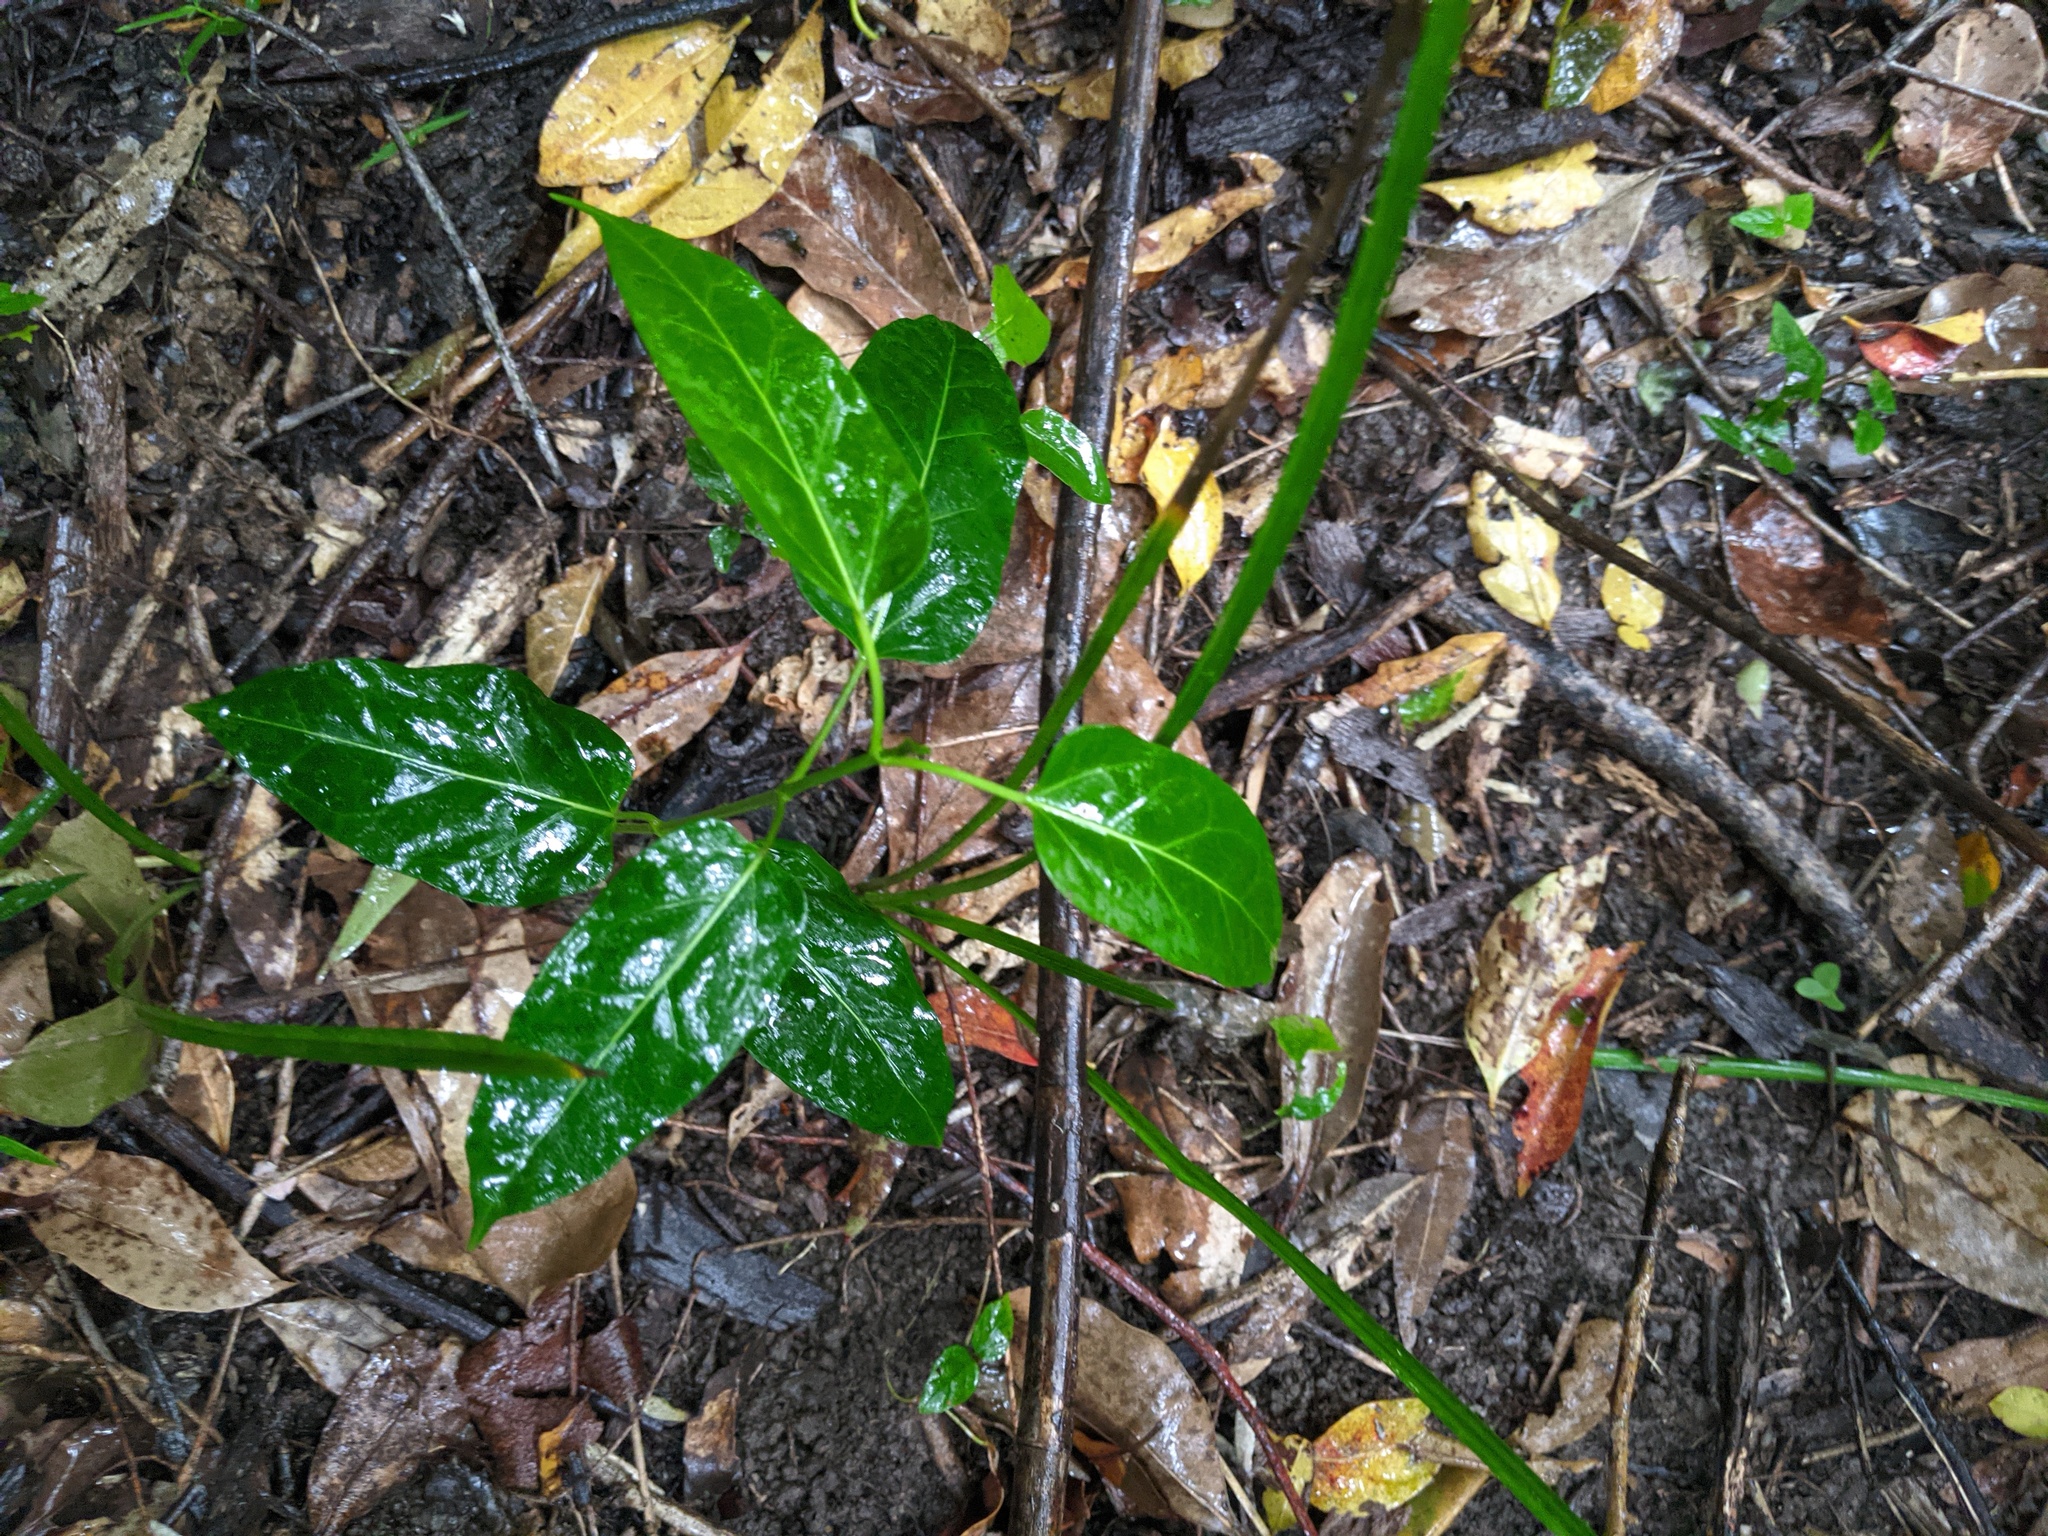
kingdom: Plantae
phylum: Tracheophyta
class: Magnoliopsida
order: Gentianales
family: Apocynaceae
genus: Leichhardtia
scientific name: Leichhardtia rostrata
